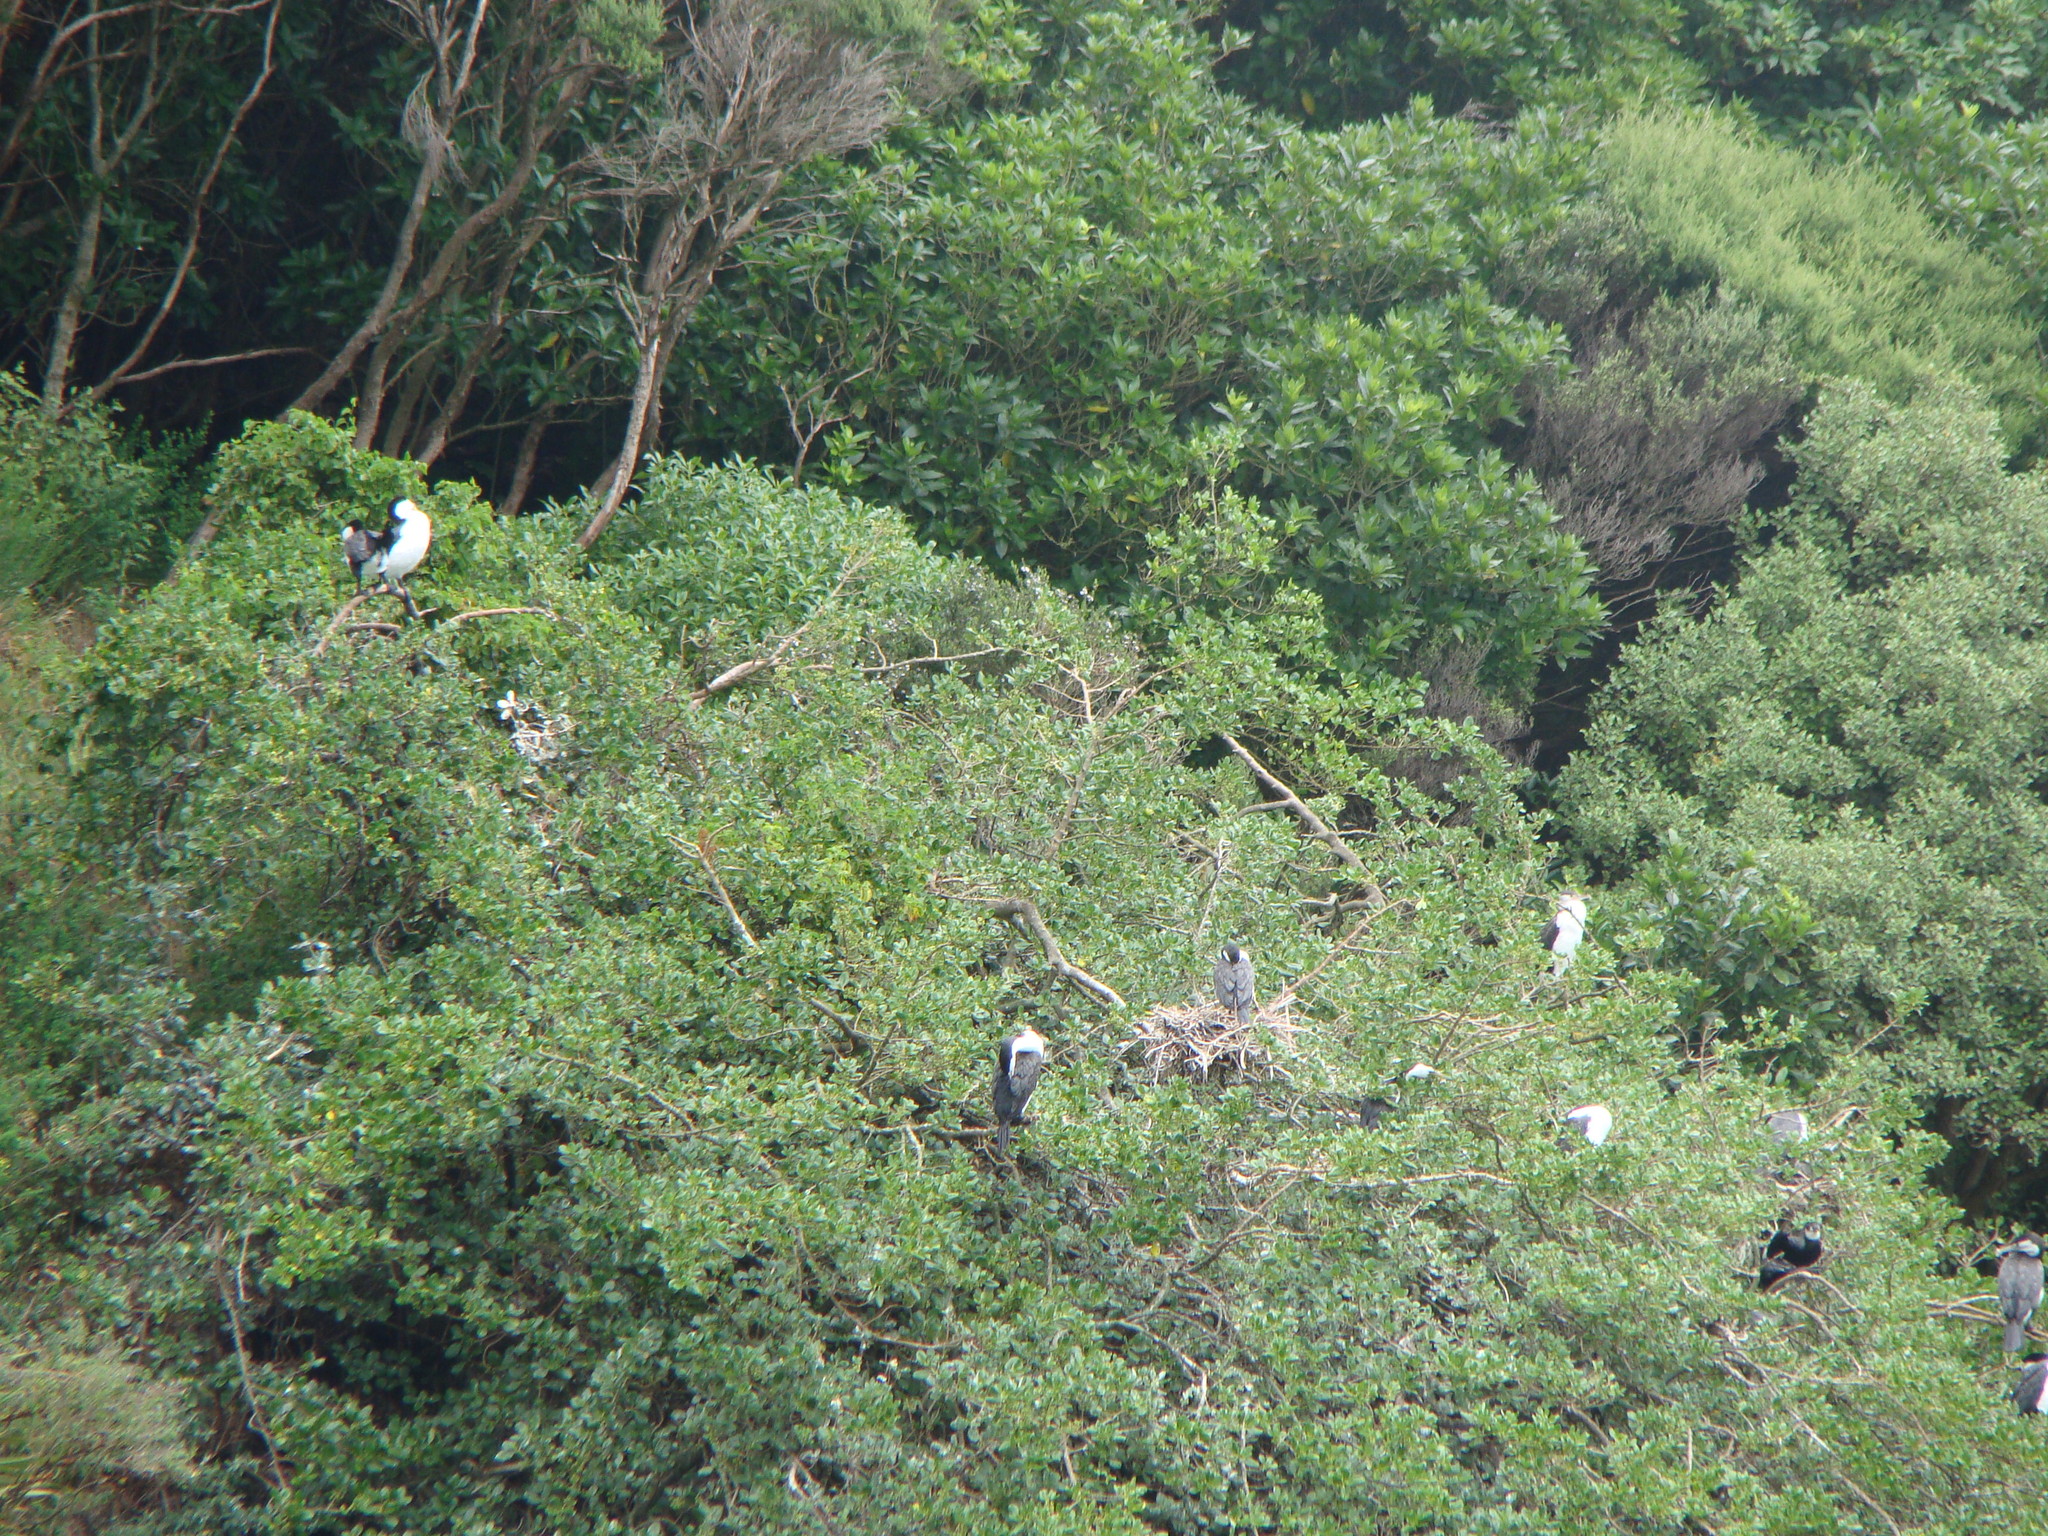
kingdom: Animalia
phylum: Chordata
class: Aves
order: Suliformes
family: Phalacrocoracidae
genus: Phalacrocorax
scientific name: Phalacrocorax varius
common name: Pied cormorant
